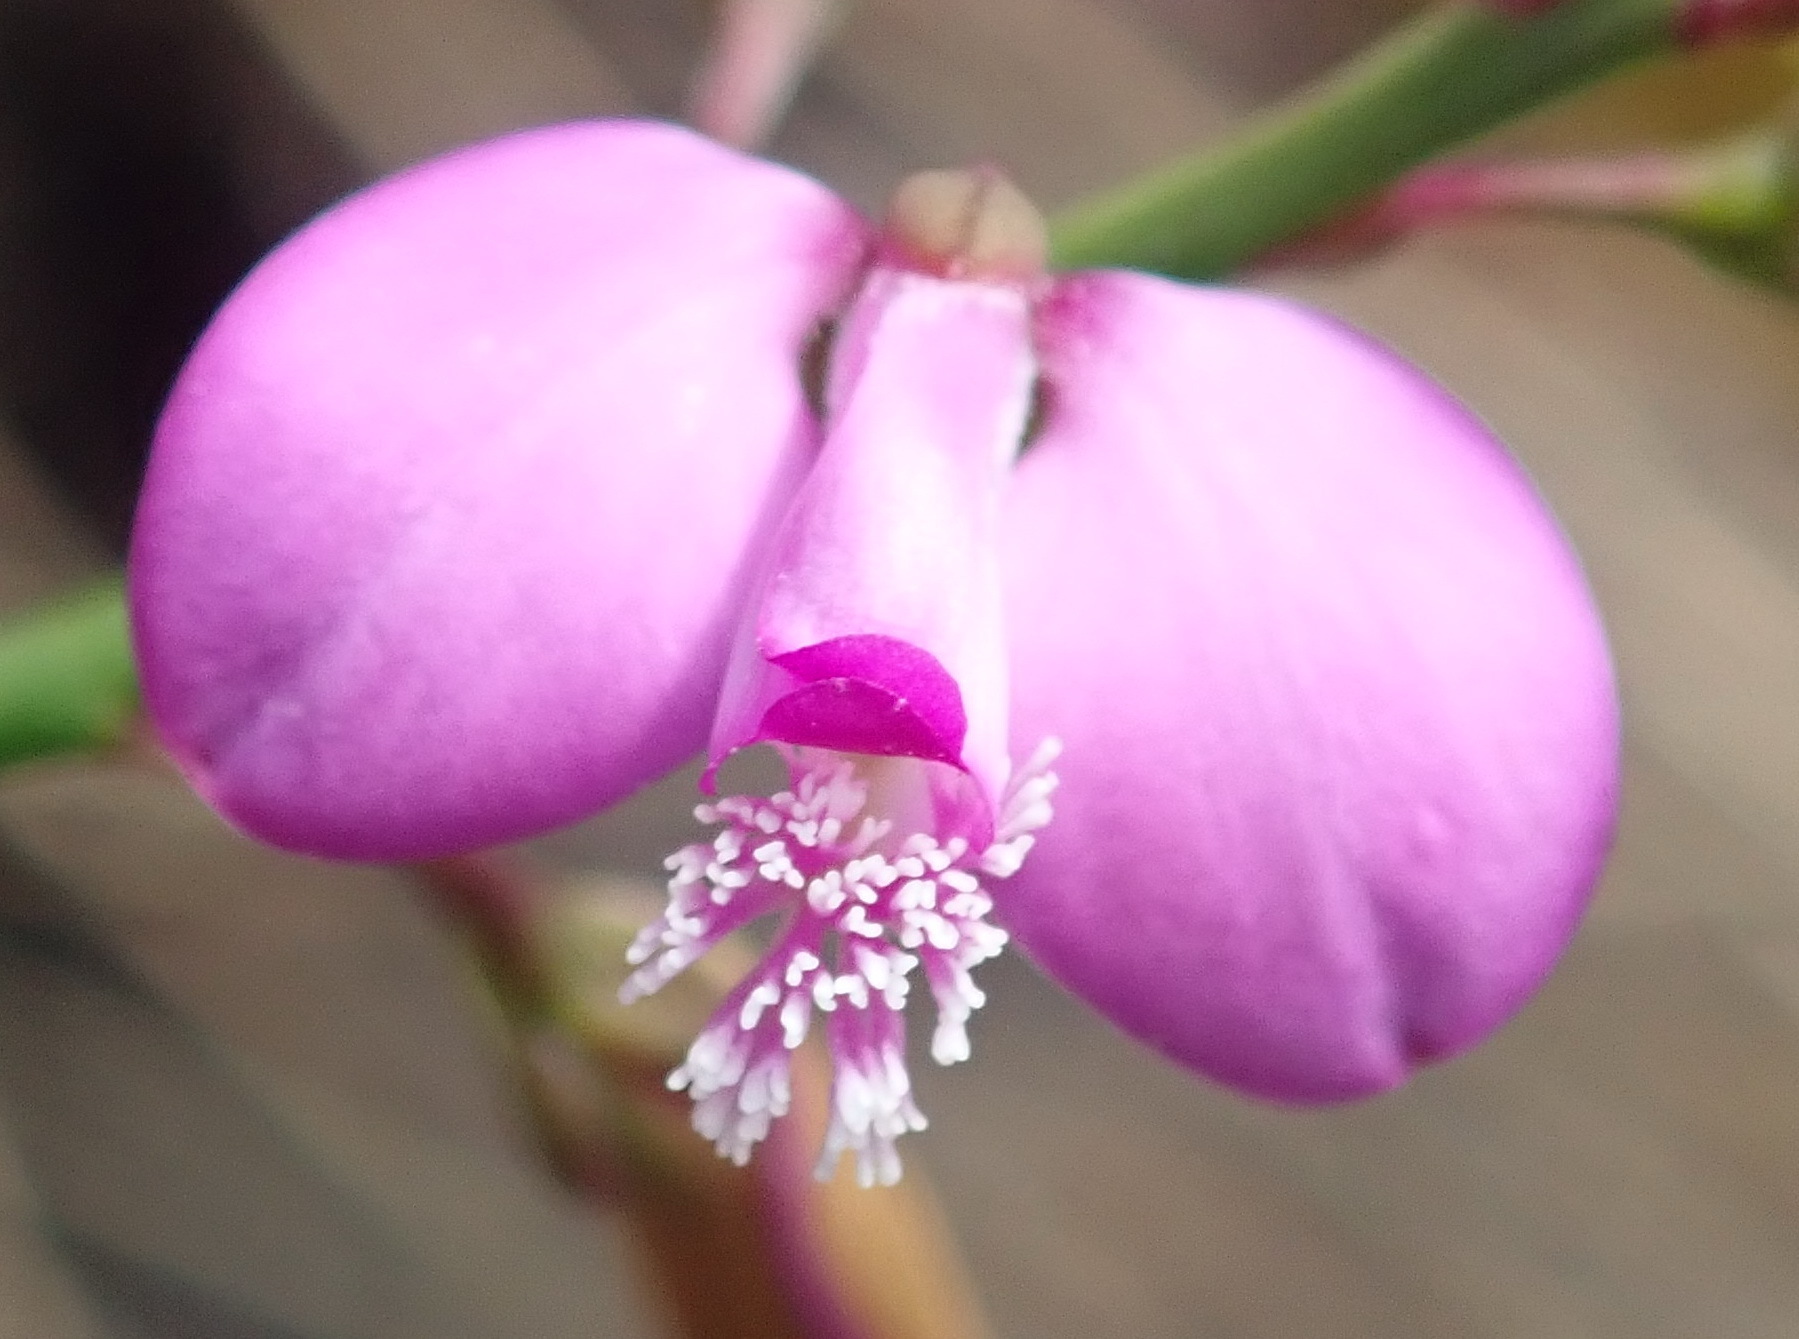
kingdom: Plantae
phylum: Tracheophyta
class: Magnoliopsida
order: Fabales
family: Polygalaceae
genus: Polygala
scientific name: Polygala garcini
